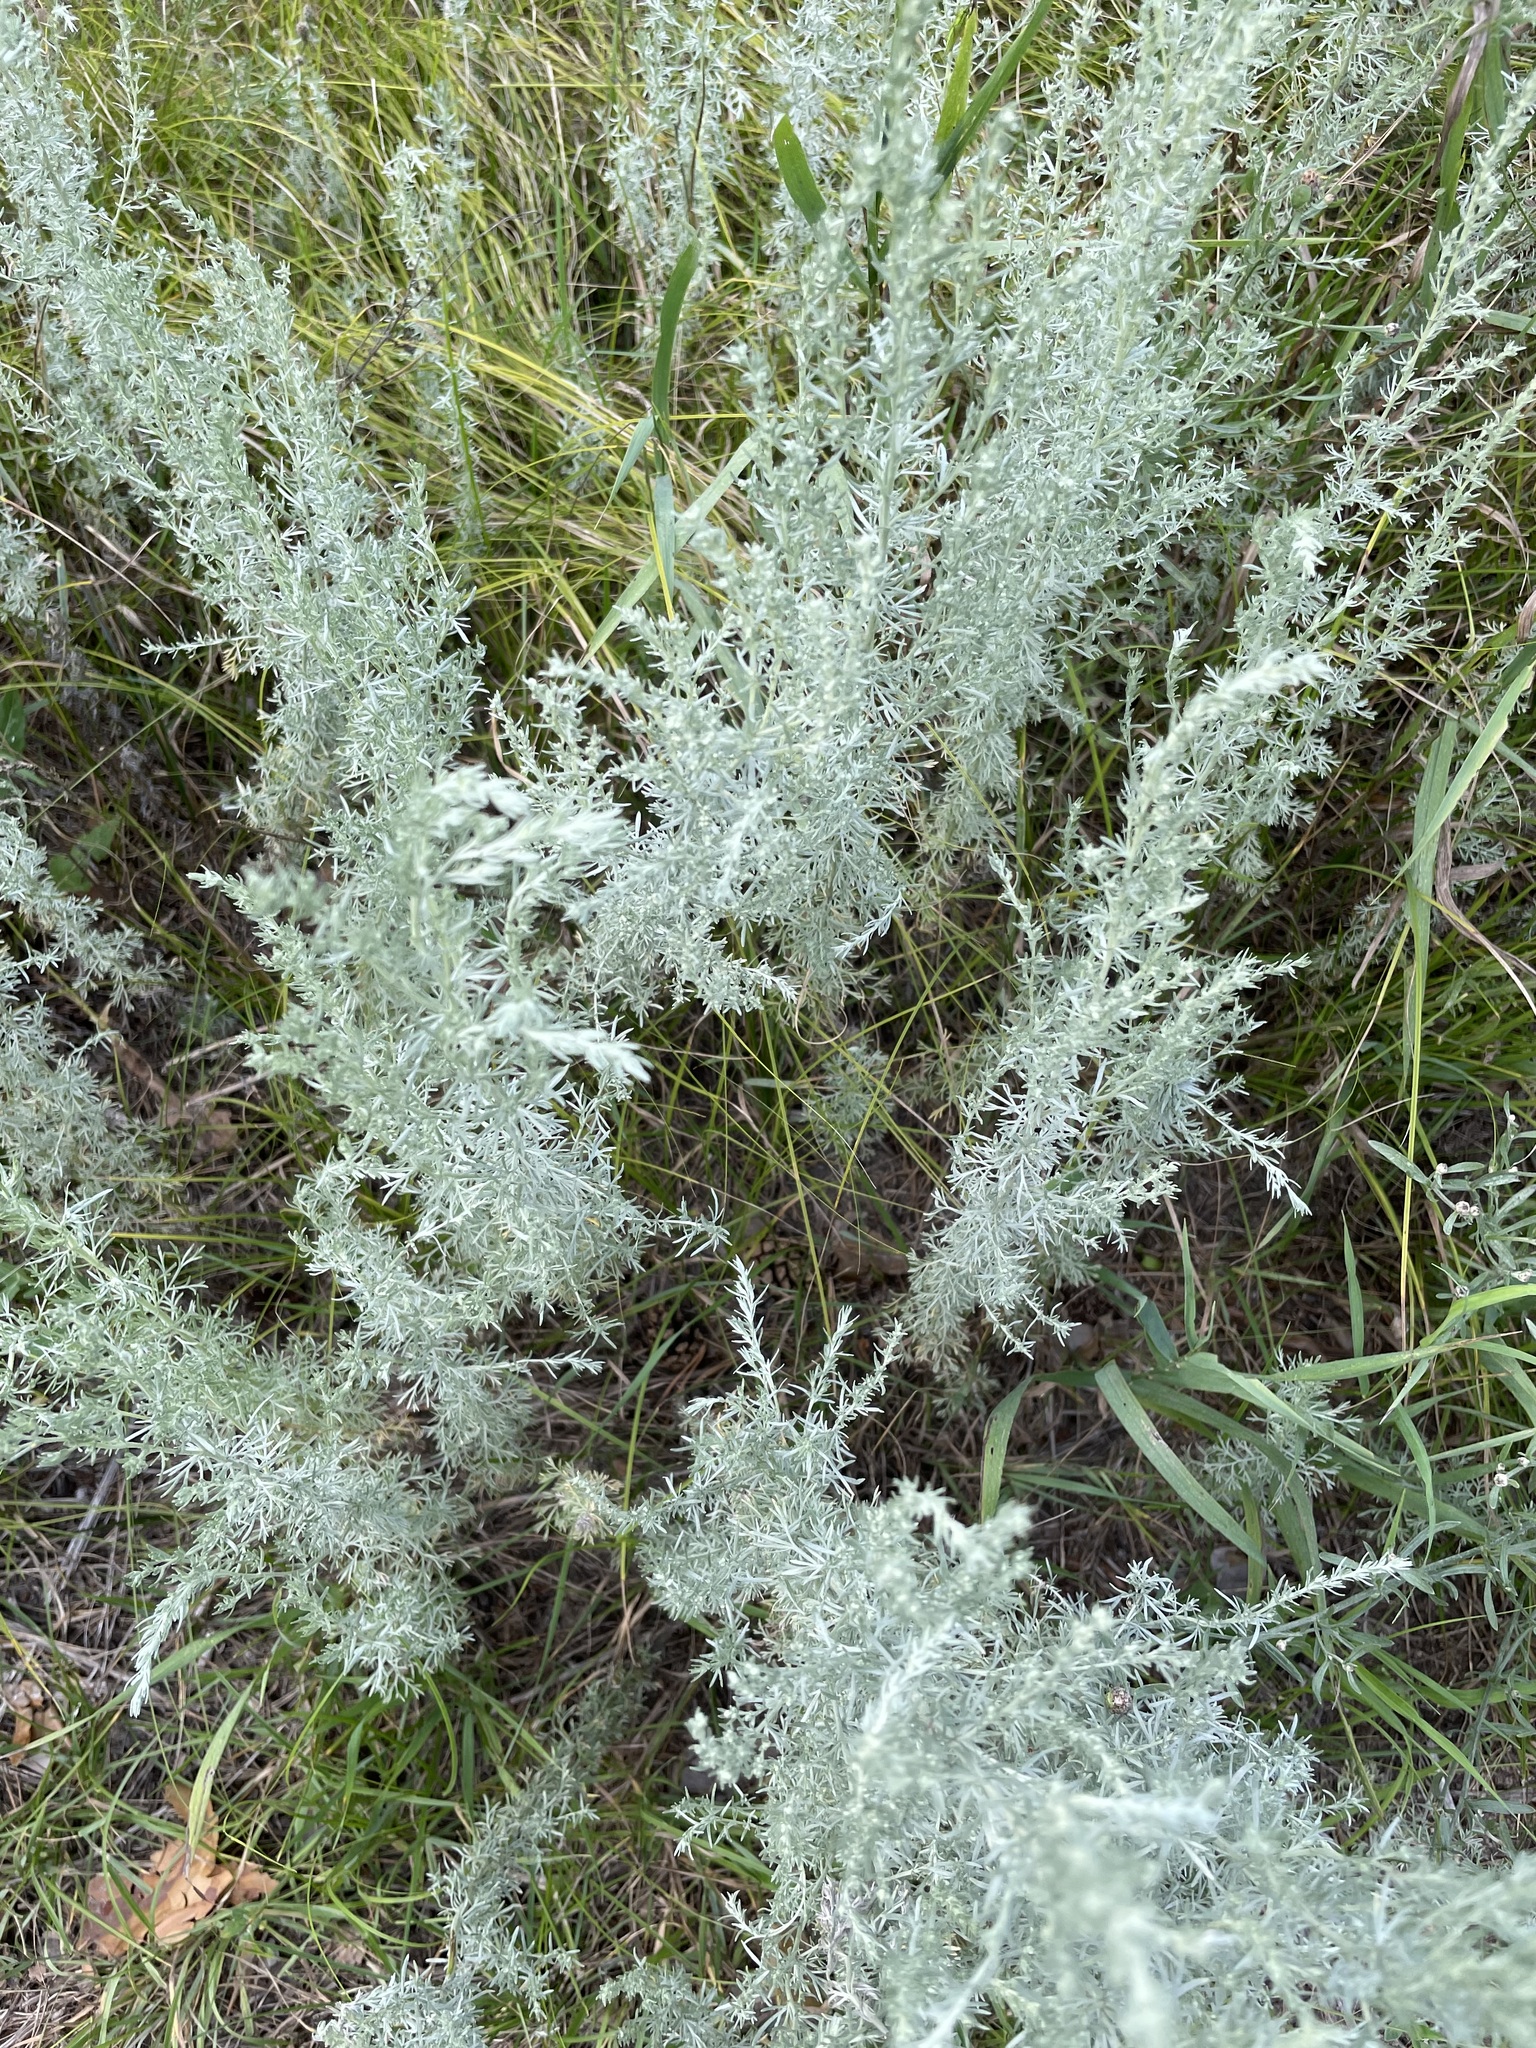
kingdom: Plantae
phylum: Tracheophyta
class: Magnoliopsida
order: Asterales
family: Asteraceae
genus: Artemisia
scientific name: Artemisia austriaca
